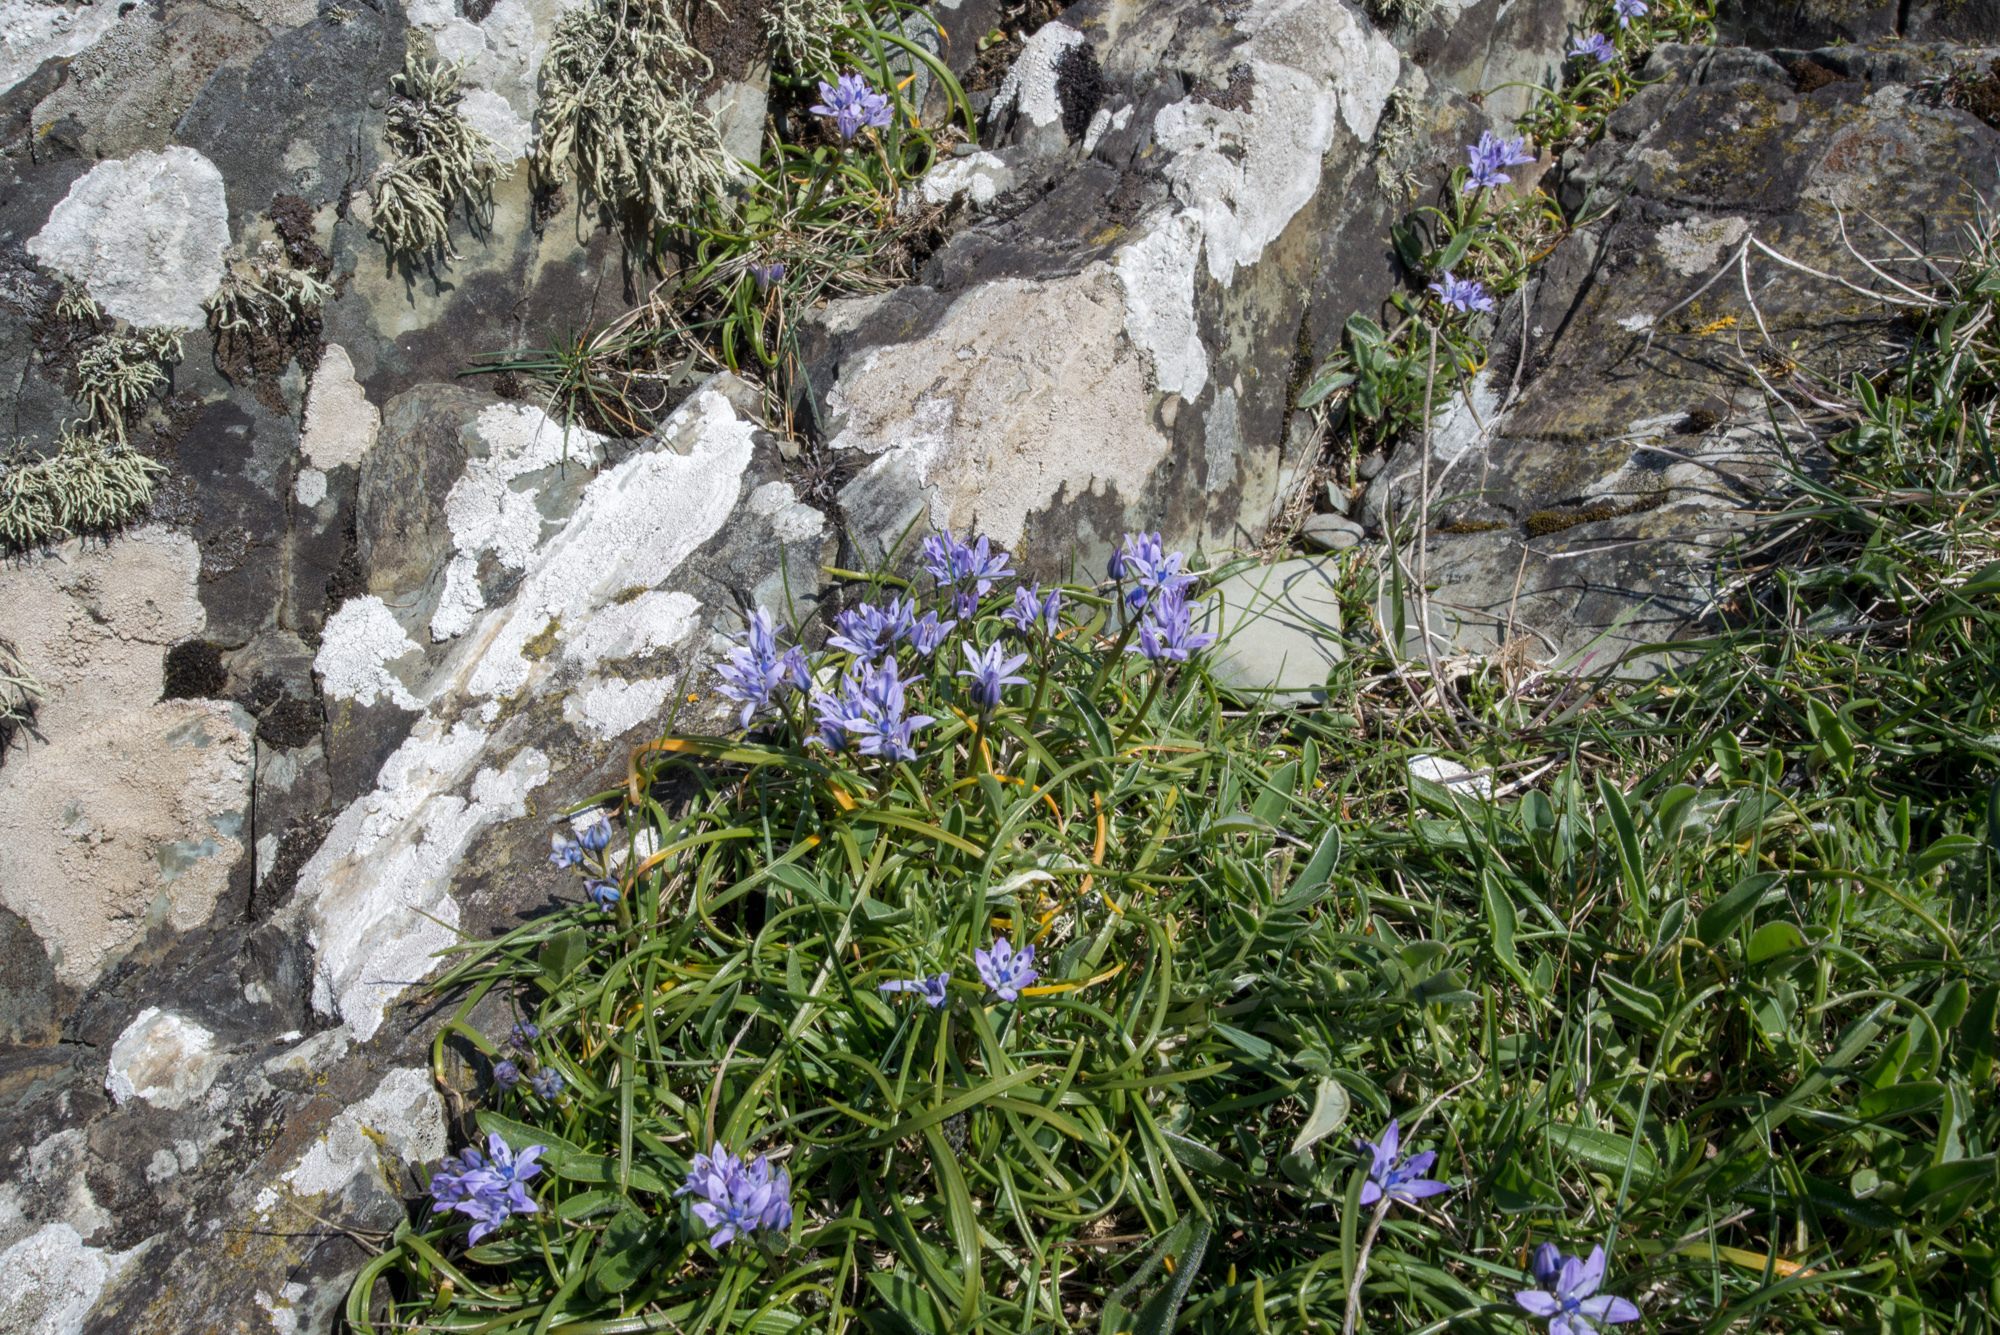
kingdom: Plantae
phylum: Tracheophyta
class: Liliopsida
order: Asparagales
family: Asparagaceae
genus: Scilla
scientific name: Scilla verna
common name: Spring squill
